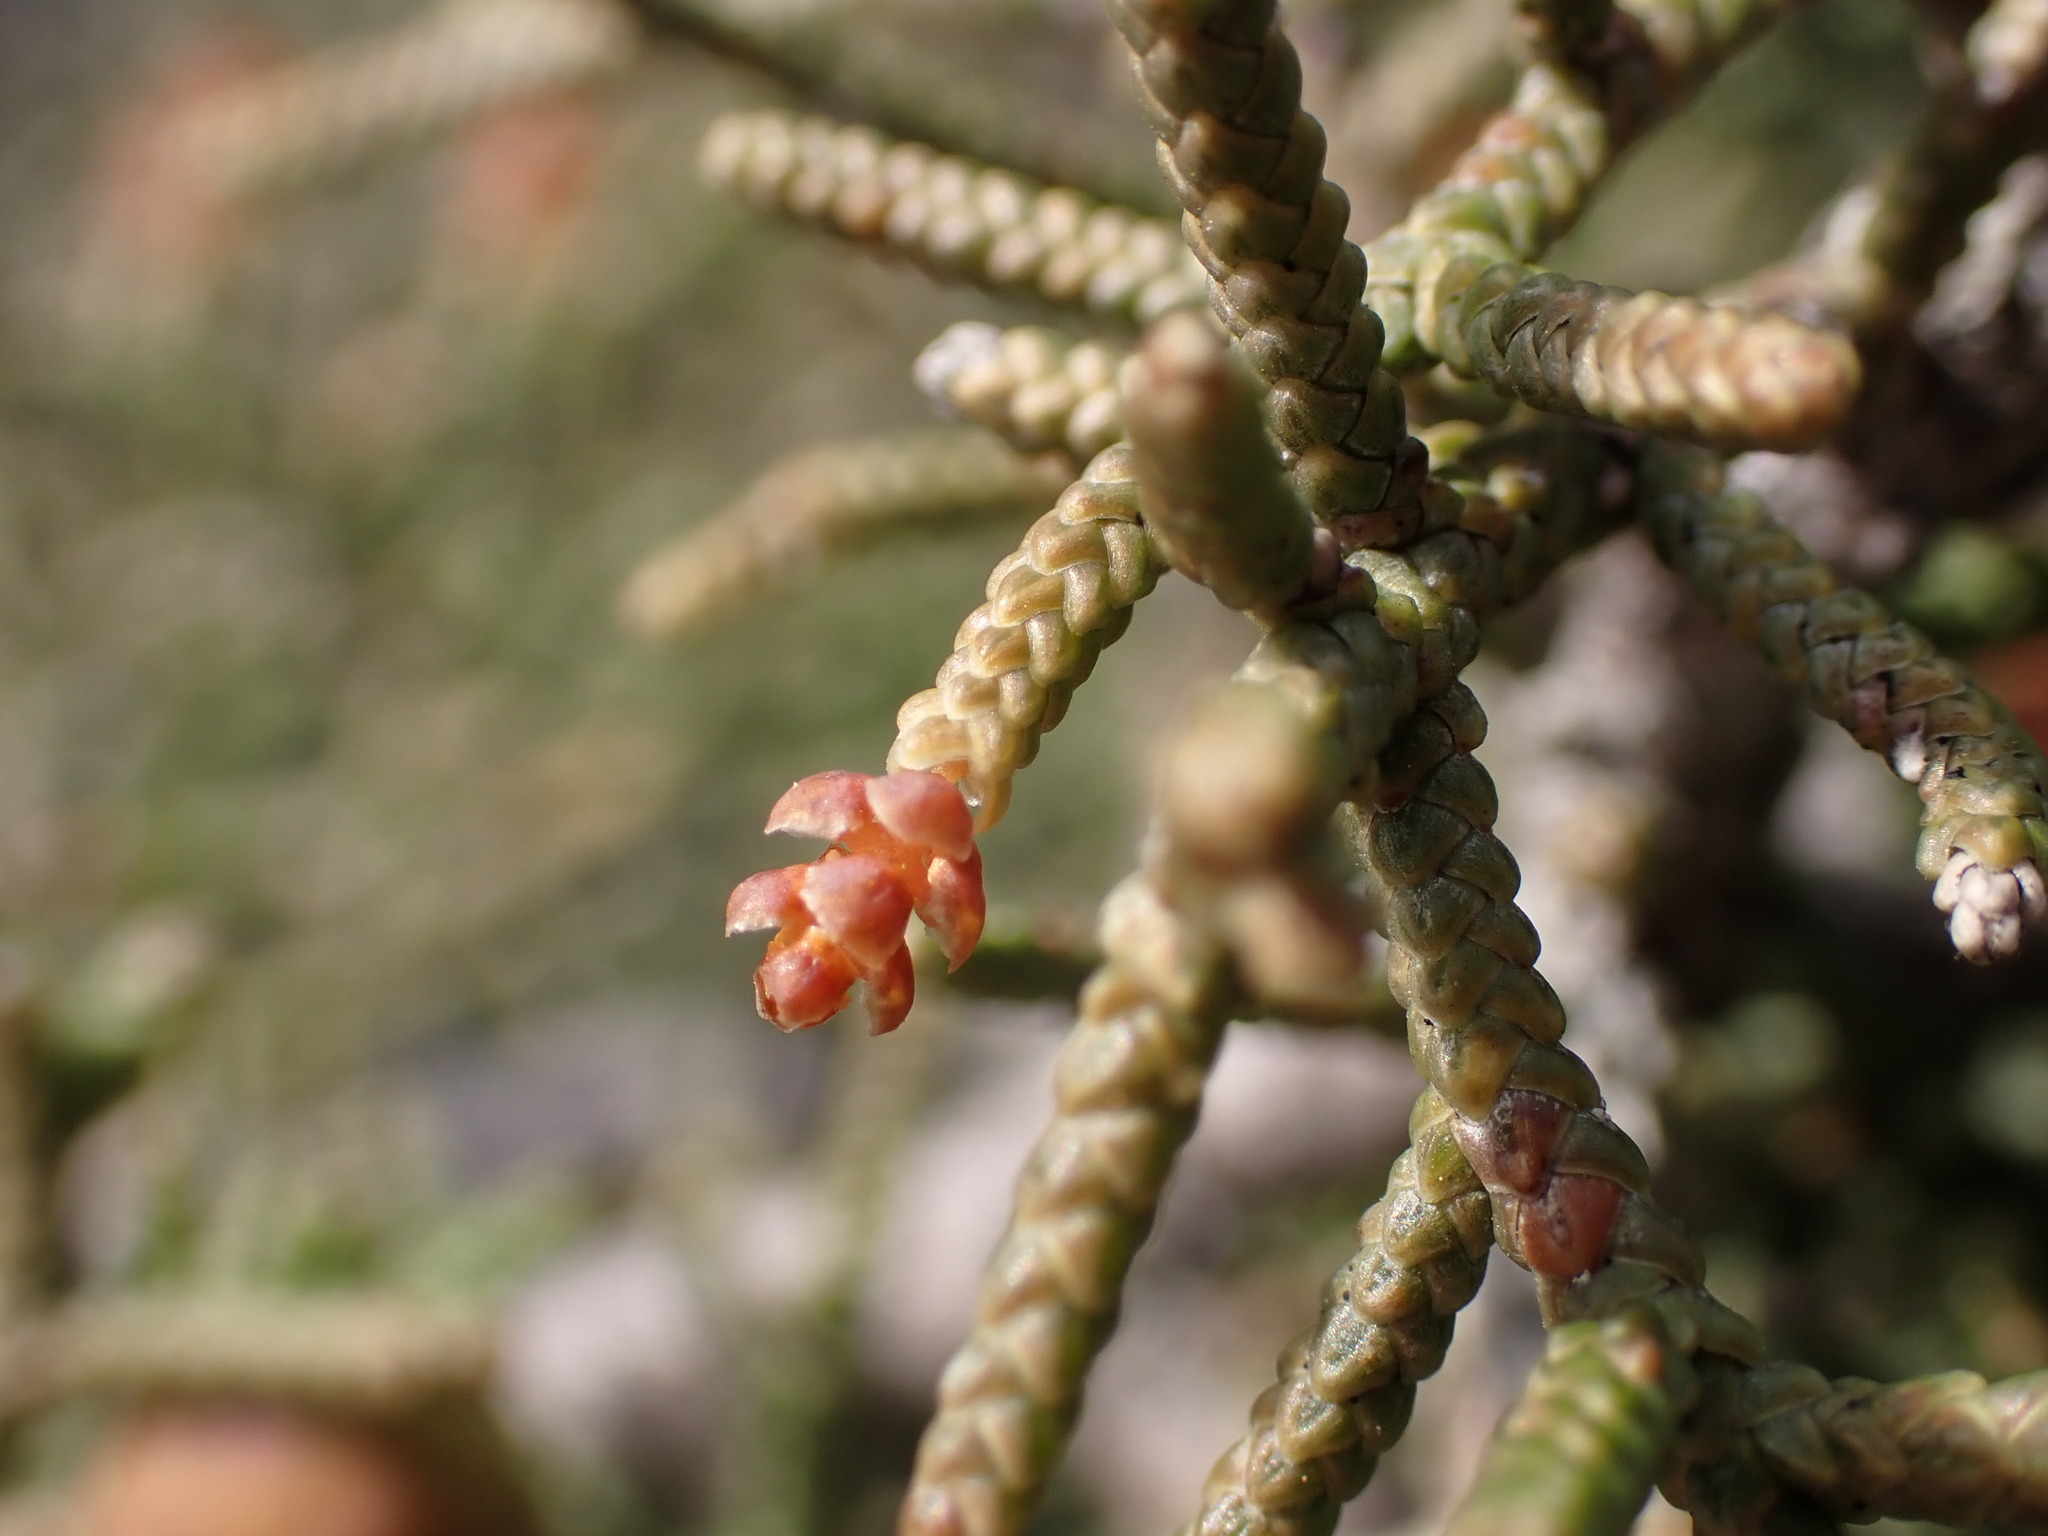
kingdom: Plantae
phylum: Tracheophyta
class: Pinopsida
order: Pinales
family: Cupressaceae
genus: Juniperus
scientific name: Juniperus phoenicea
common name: Phoenician juniper
